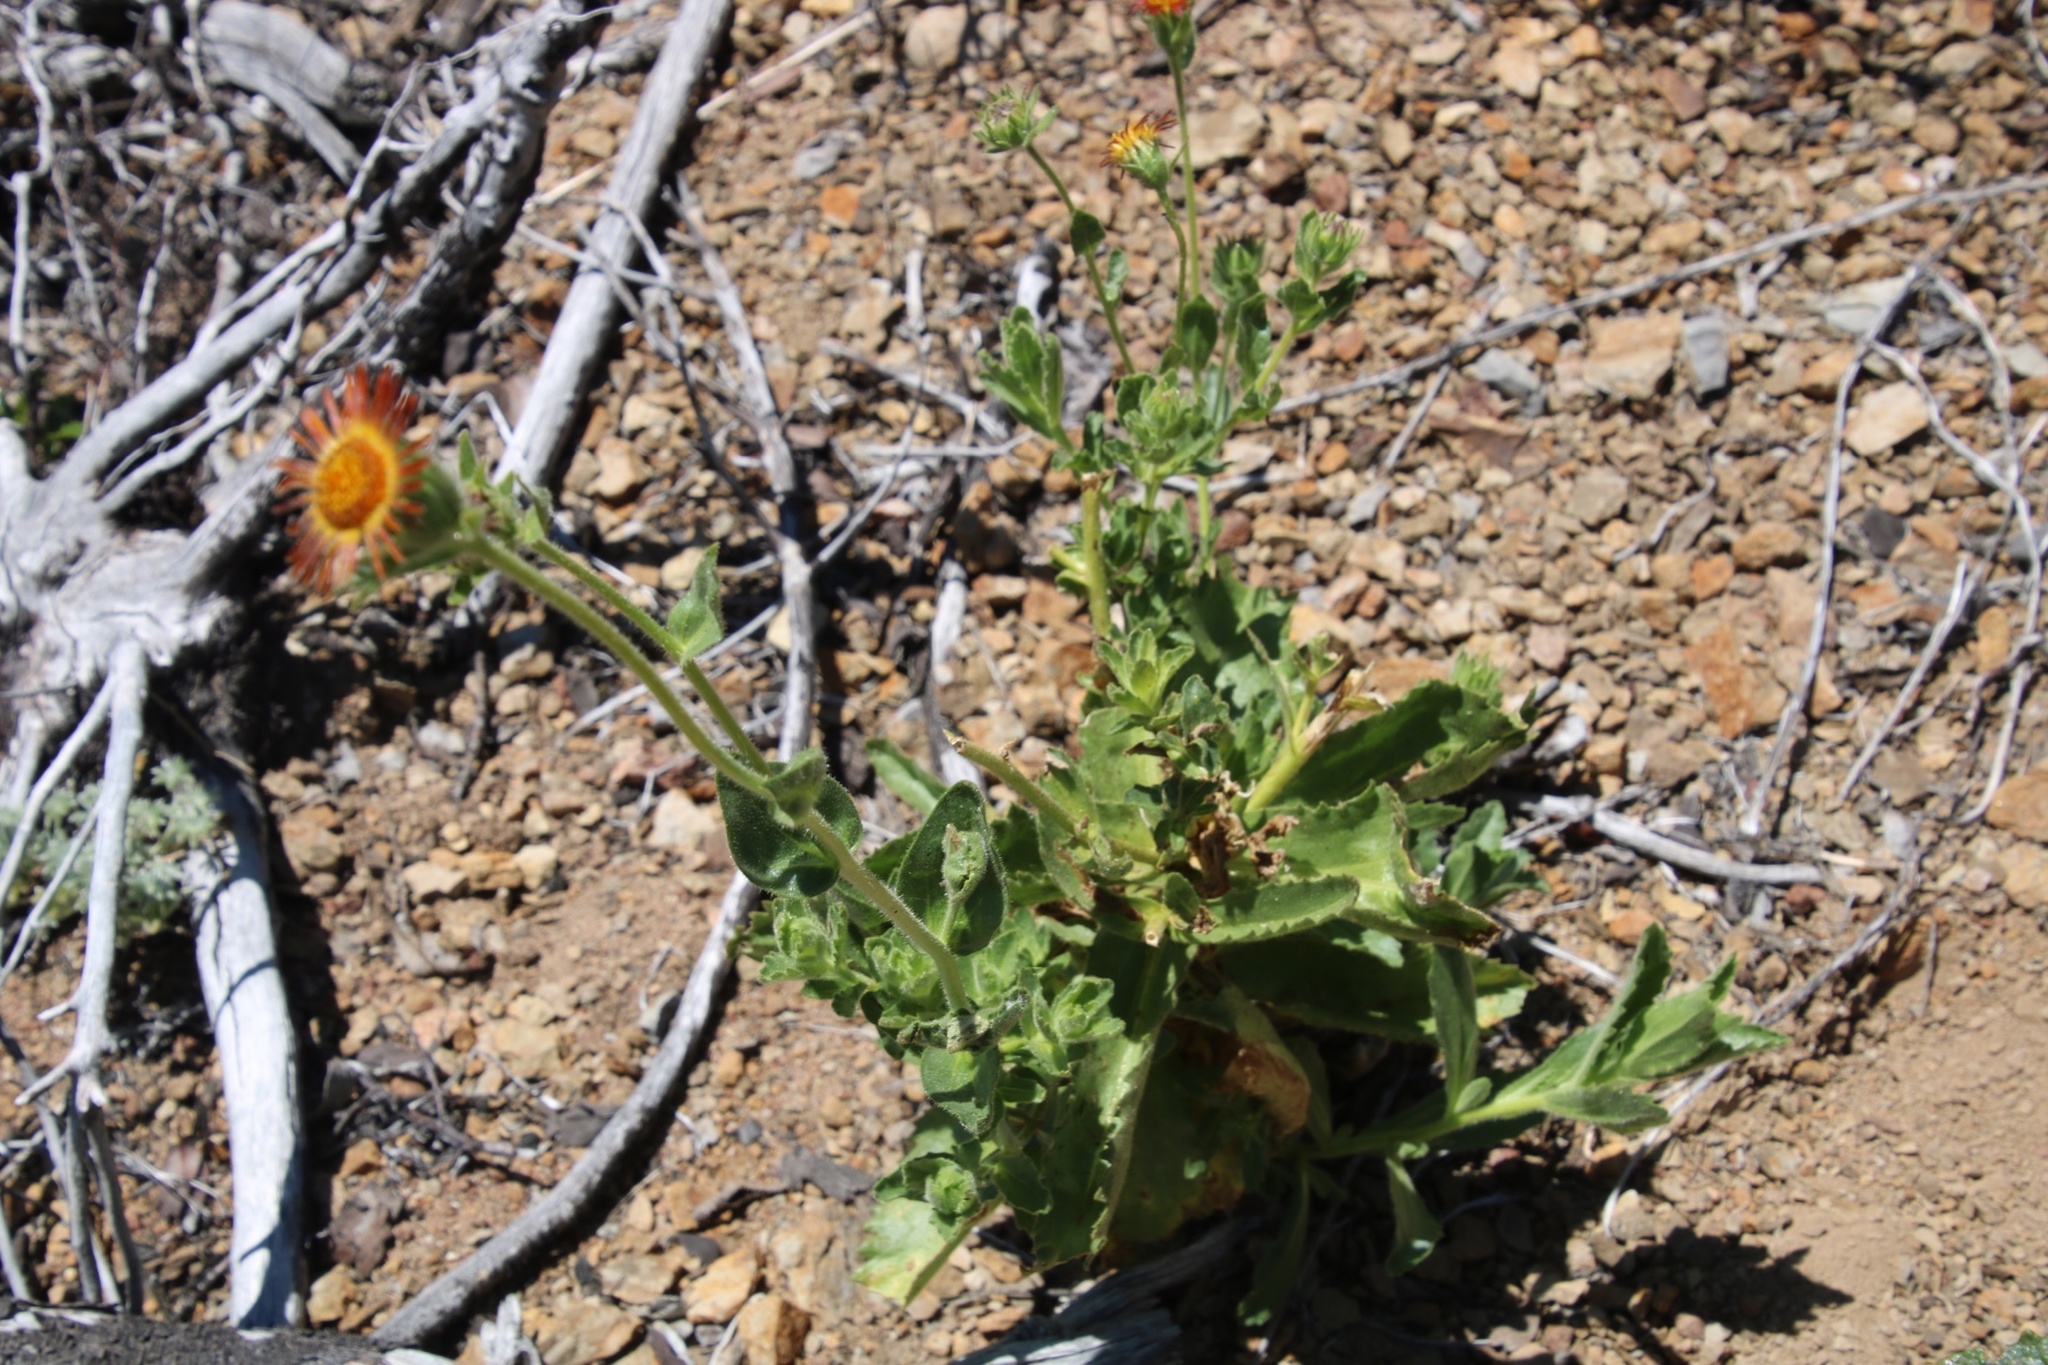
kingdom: Plantae
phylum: Tracheophyta
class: Magnoliopsida
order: Asterales
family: Asteraceae
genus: Hulsea
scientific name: Hulsea heterochroma
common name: Redray alpinegold
